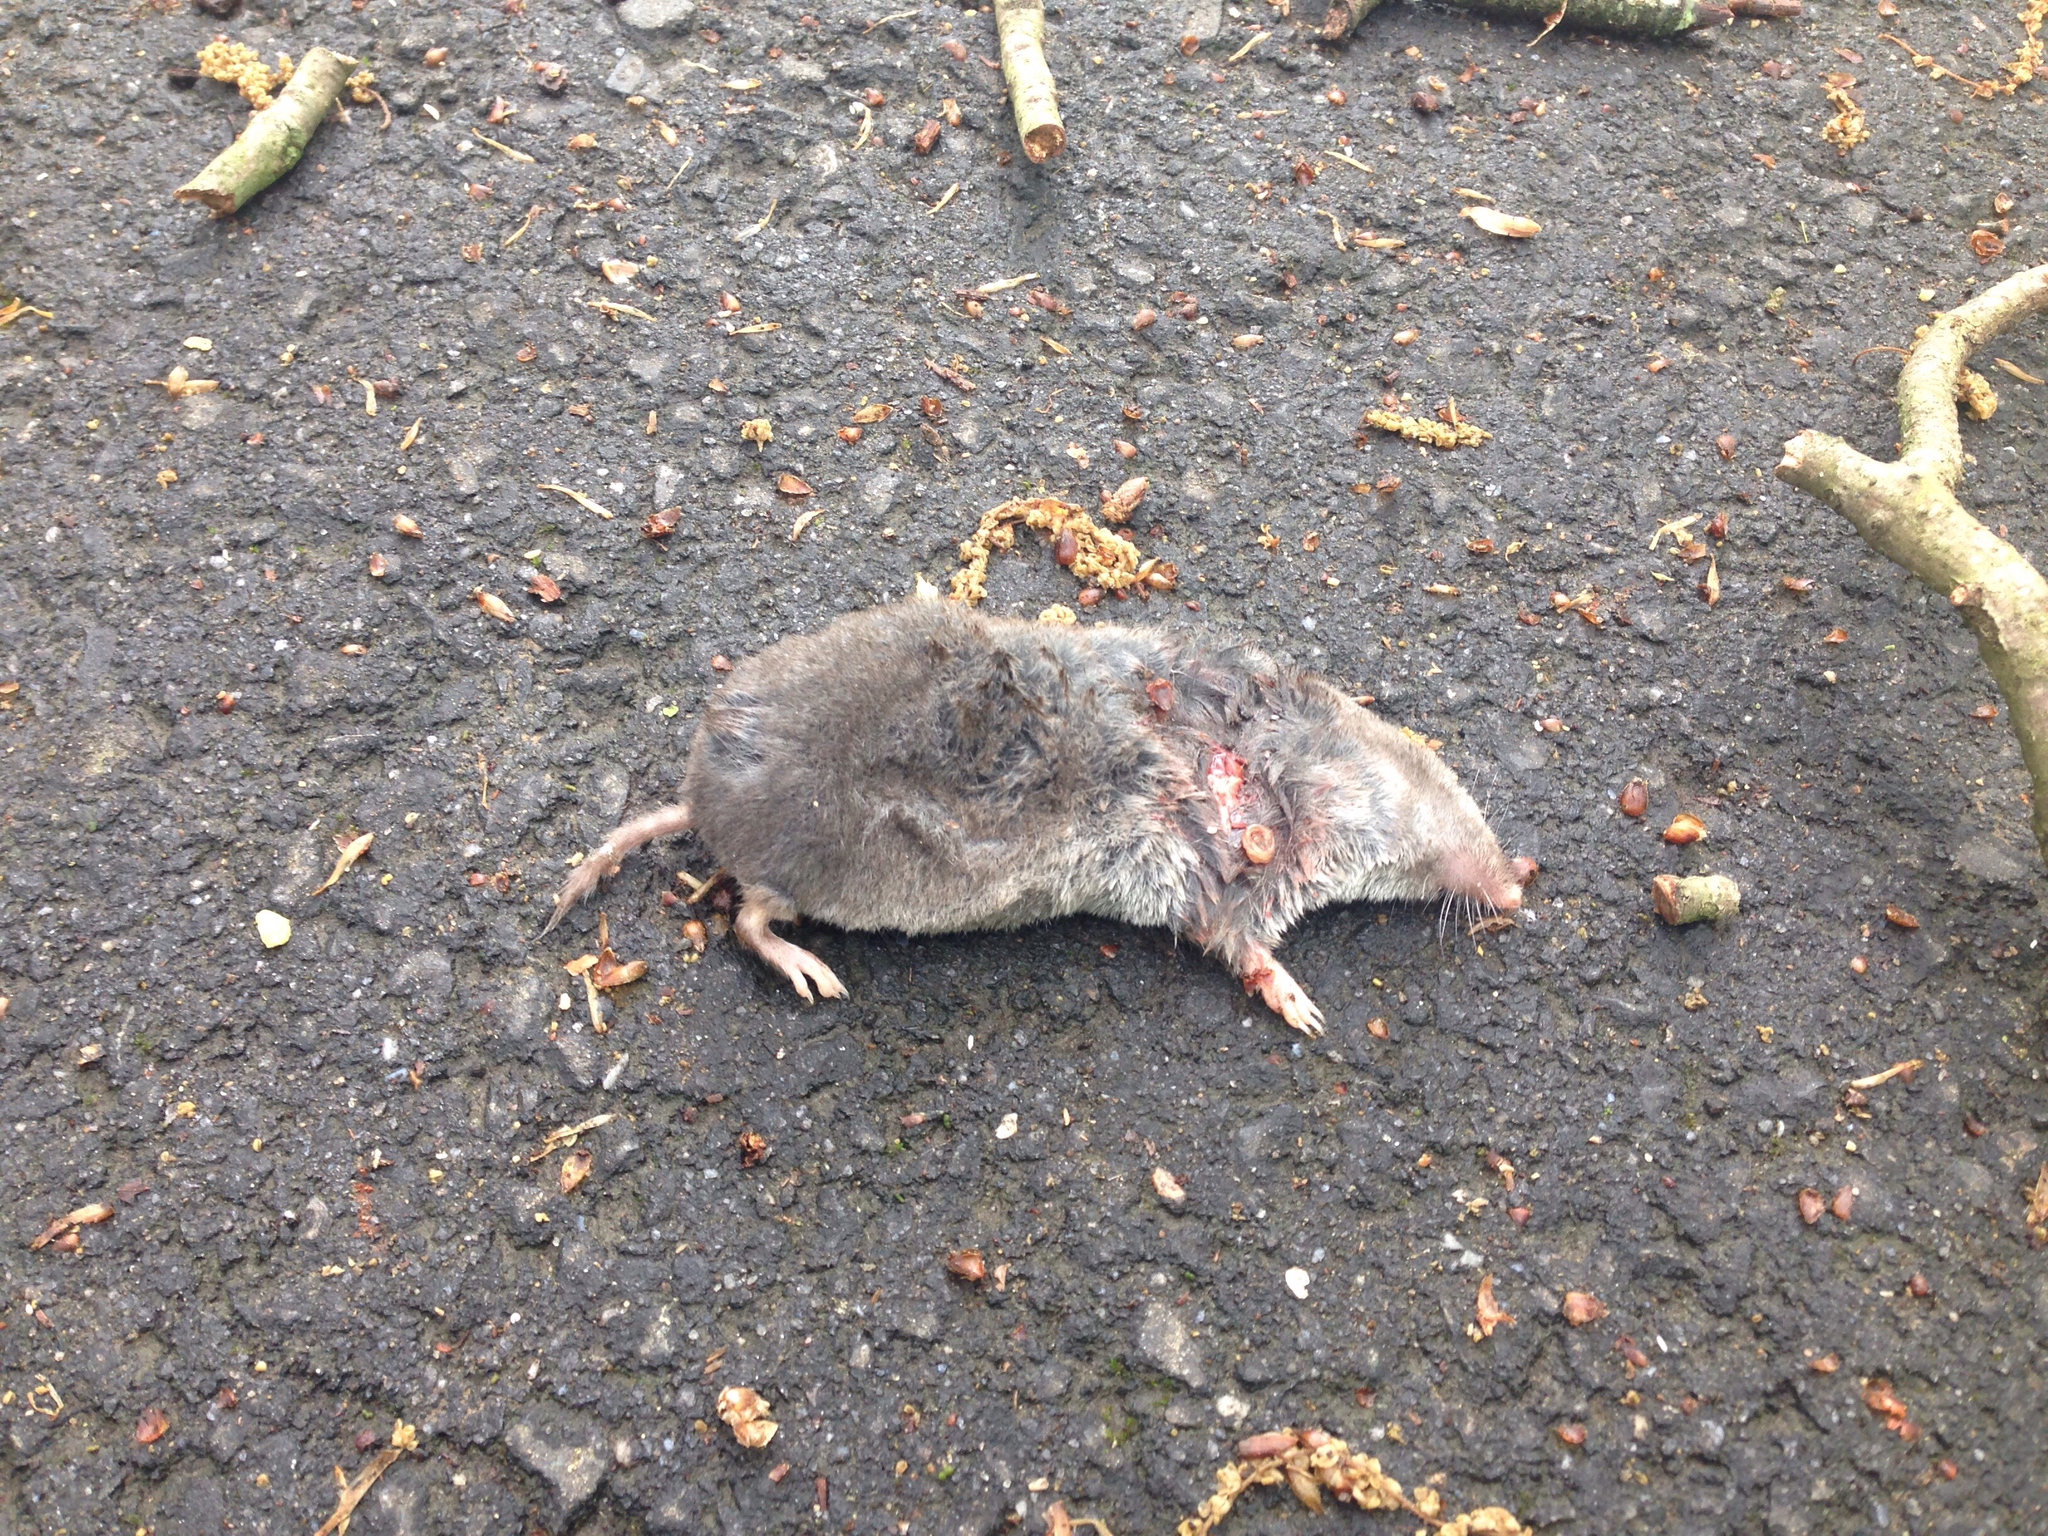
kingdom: Animalia
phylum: Chordata
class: Mammalia
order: Soricomorpha
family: Soricidae
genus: Blarina
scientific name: Blarina brevicauda
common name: Northern short-tailed shrew
